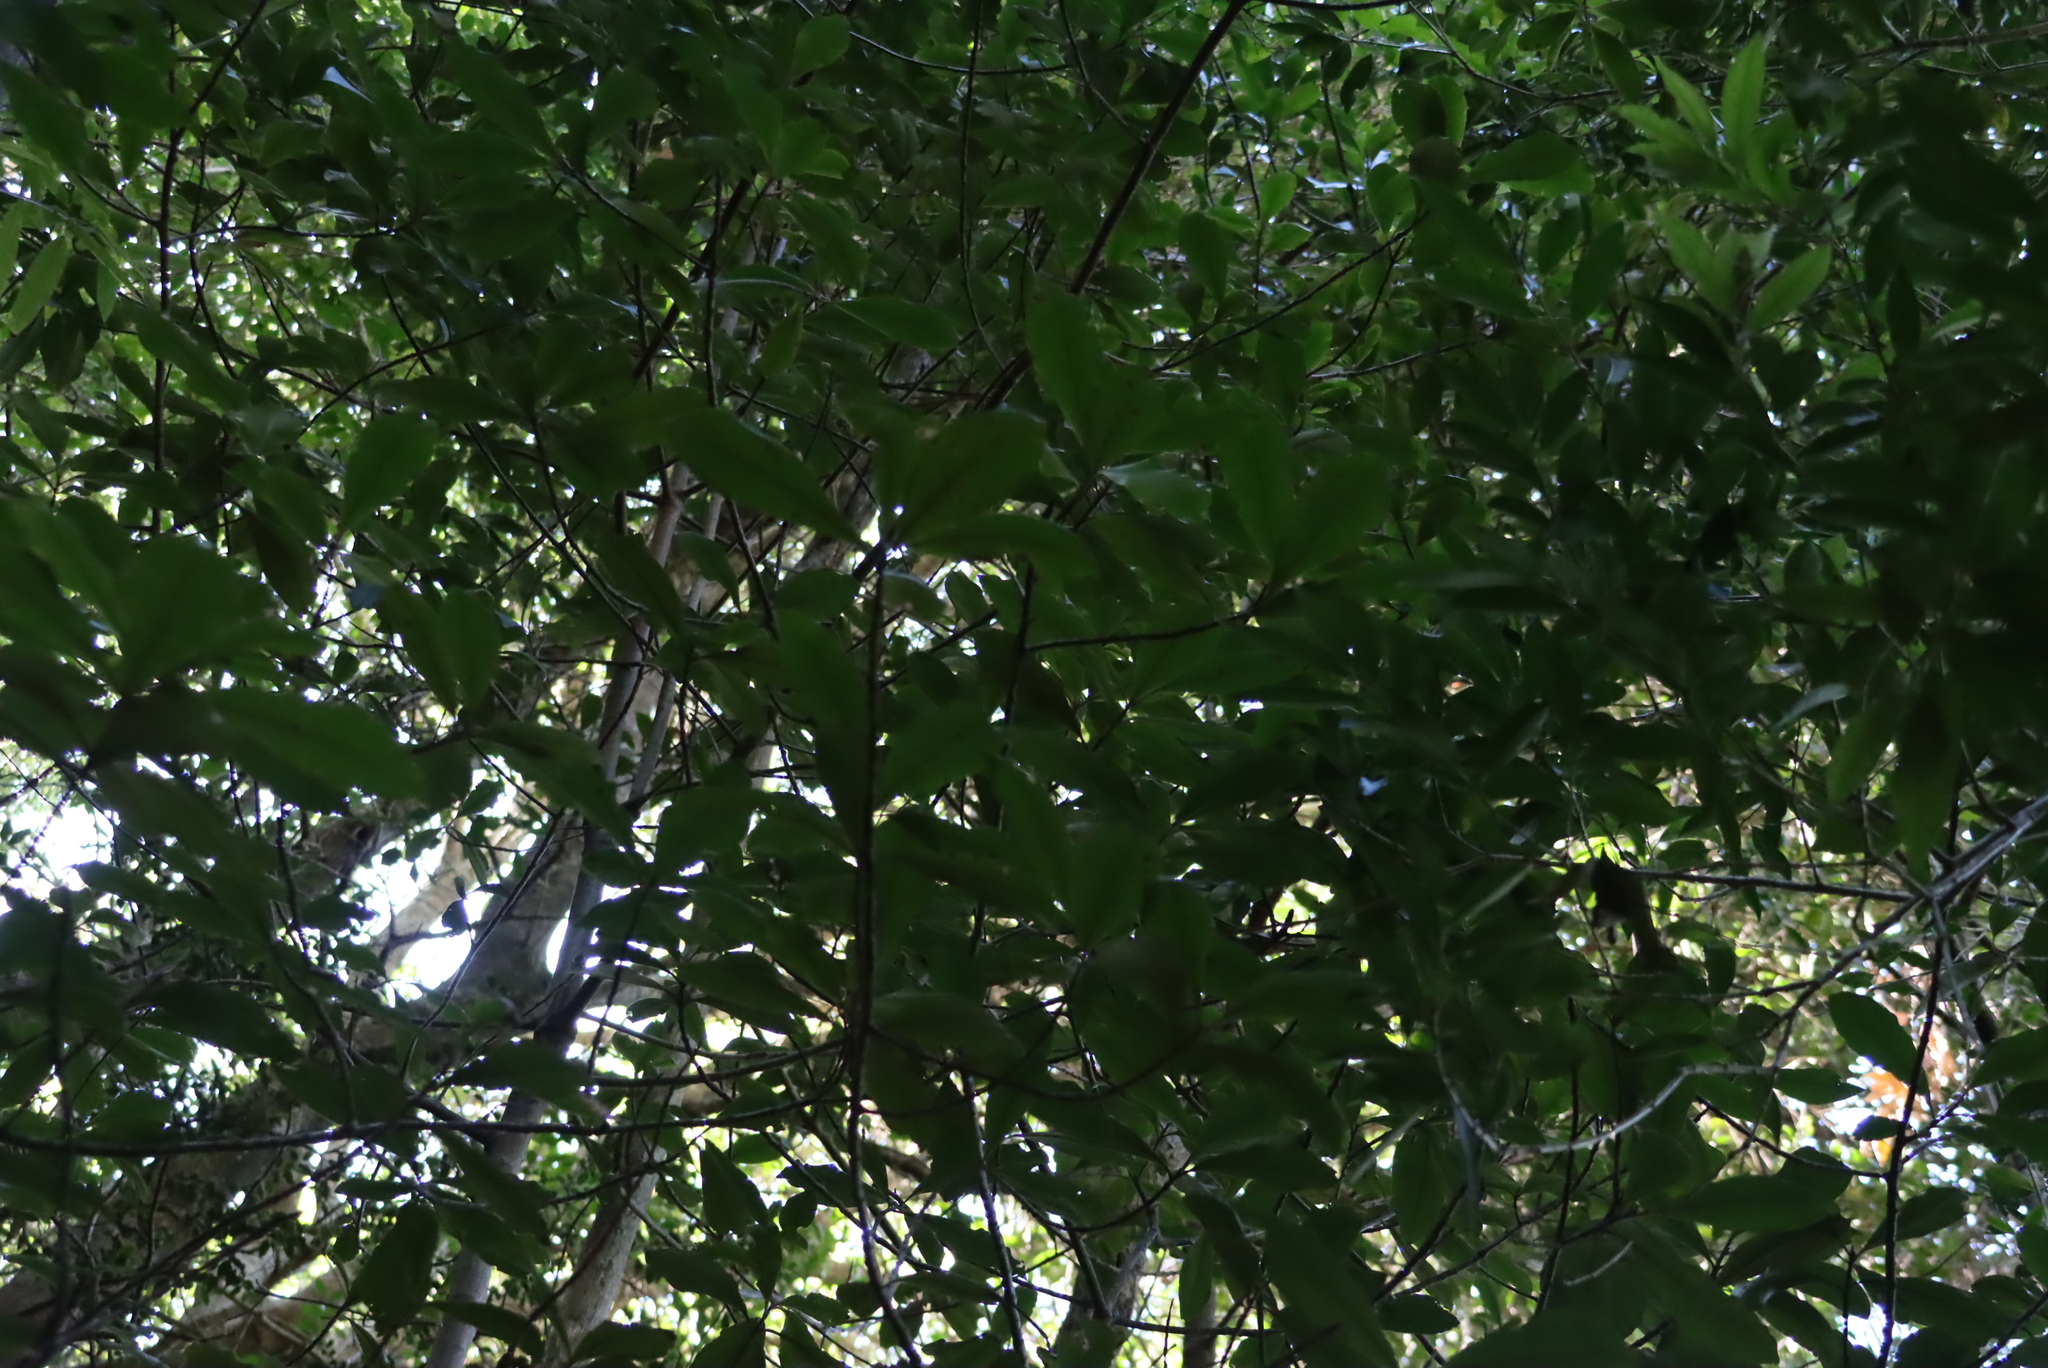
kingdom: Plantae
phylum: Tracheophyta
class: Magnoliopsida
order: Ericales
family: Primulaceae
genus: Myrsine
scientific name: Myrsine melanophloeos
